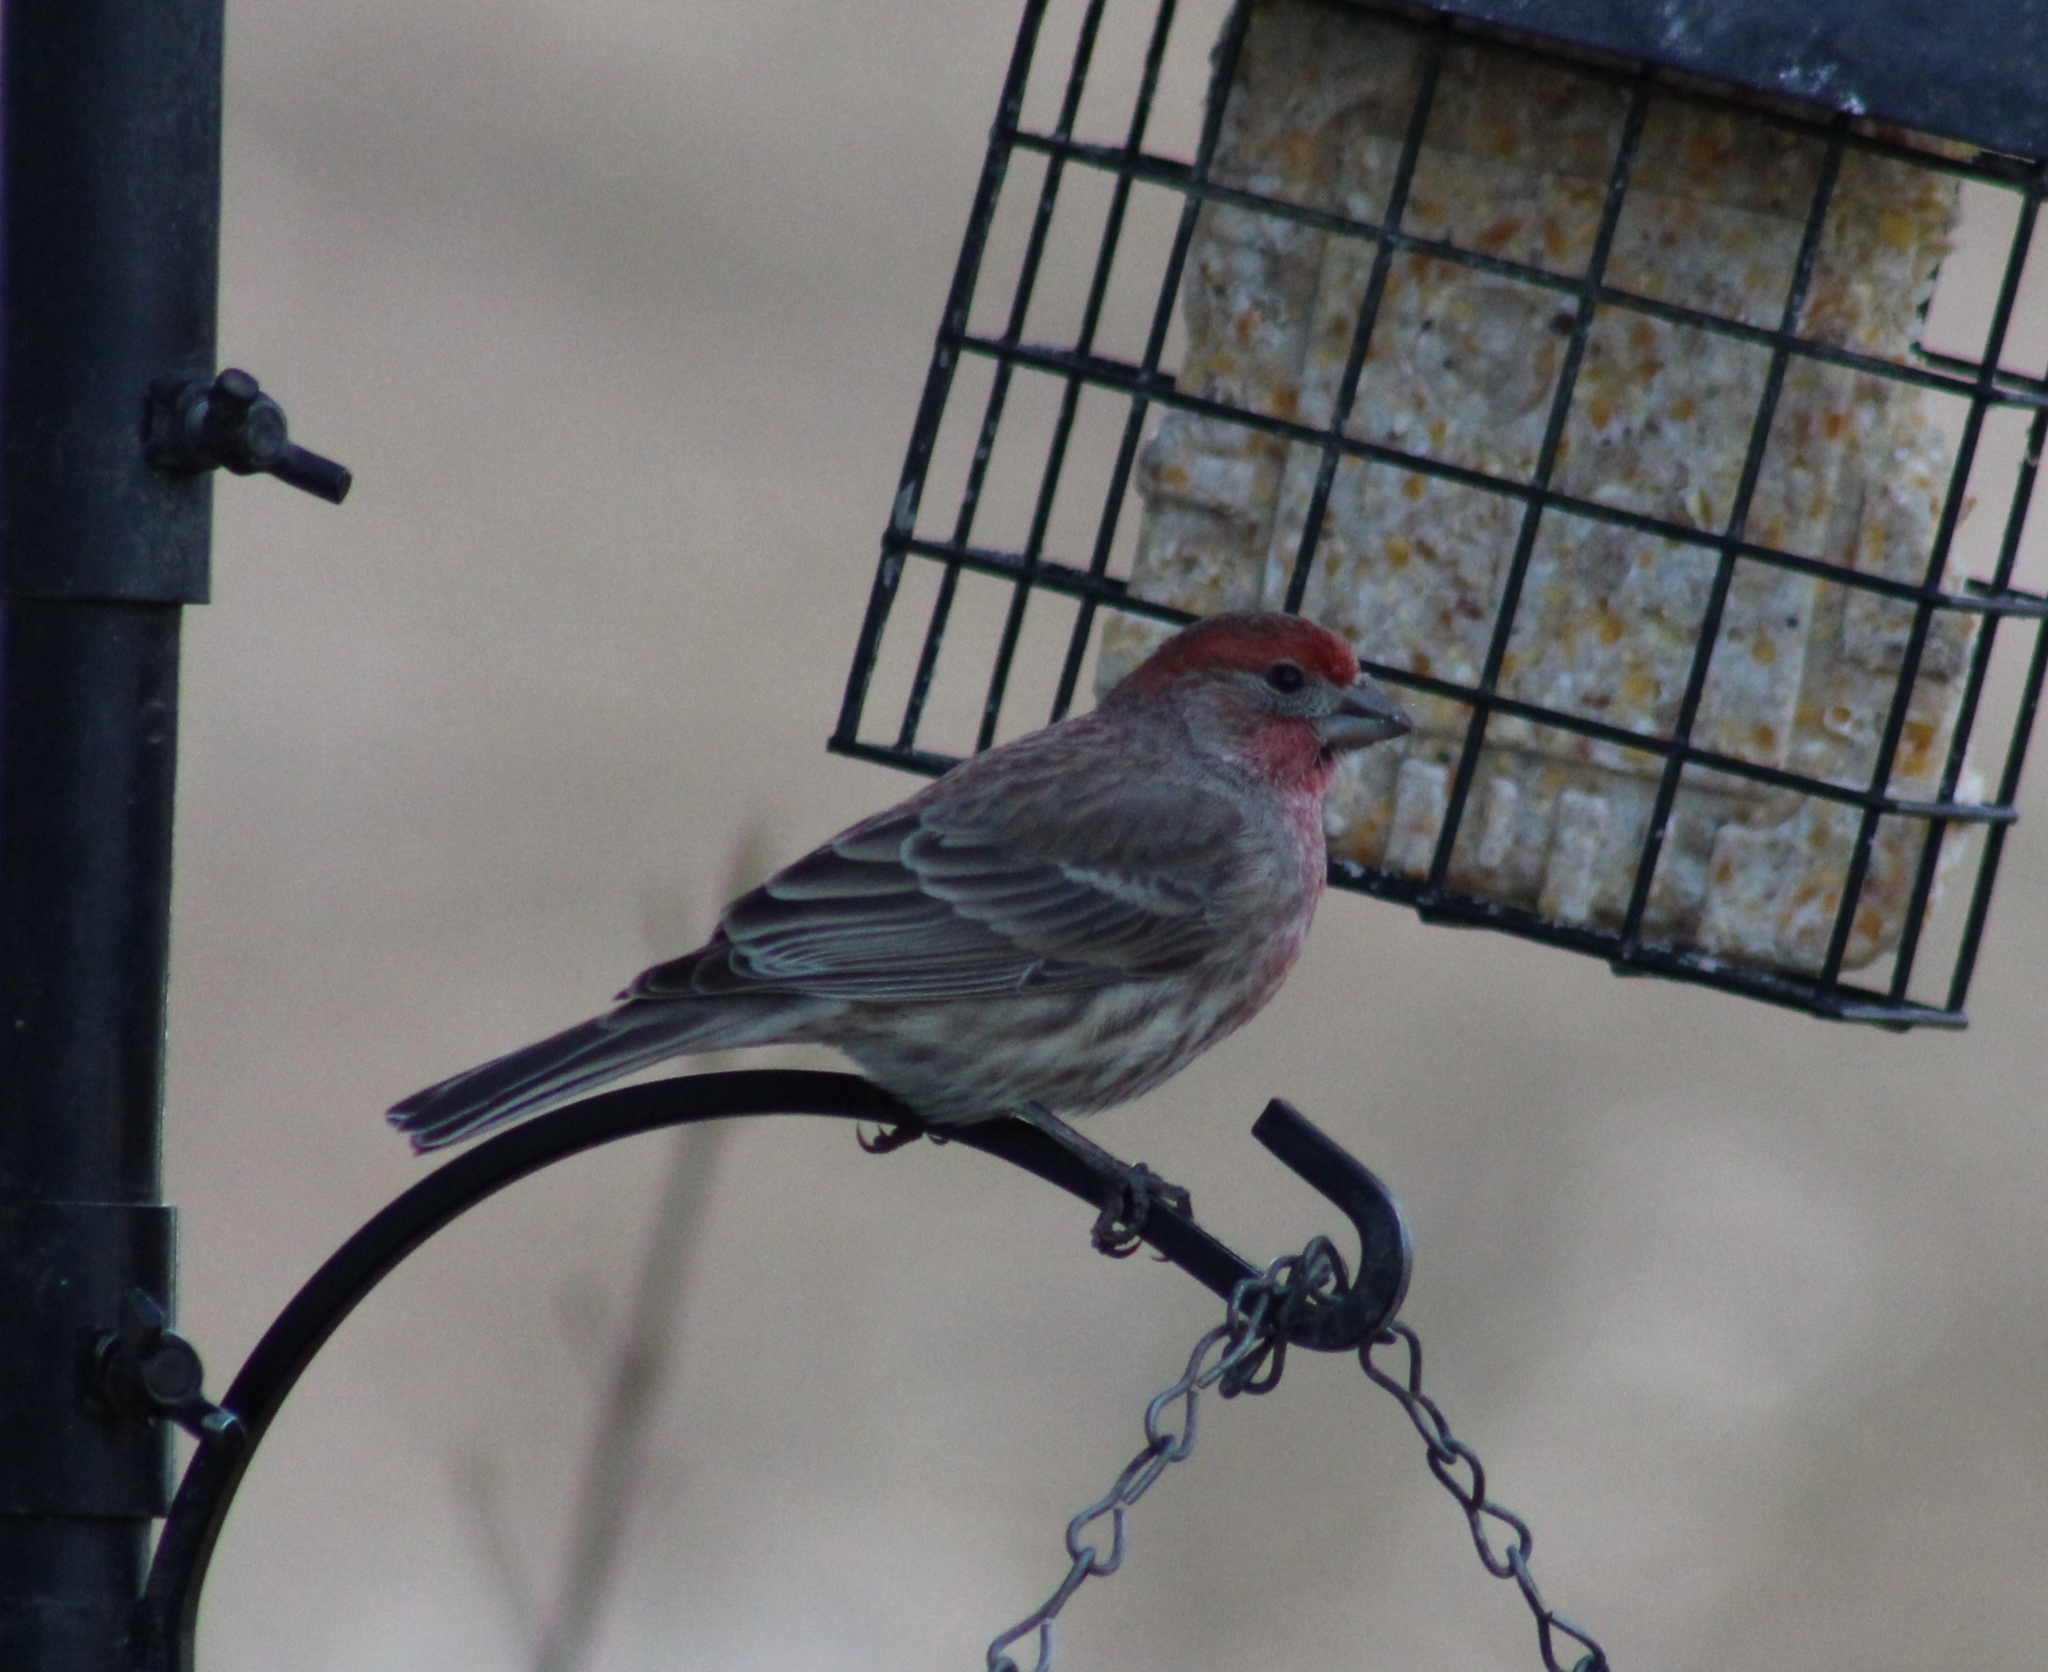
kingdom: Animalia
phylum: Chordata
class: Aves
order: Passeriformes
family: Fringillidae
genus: Haemorhous
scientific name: Haemorhous mexicanus
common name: House finch
